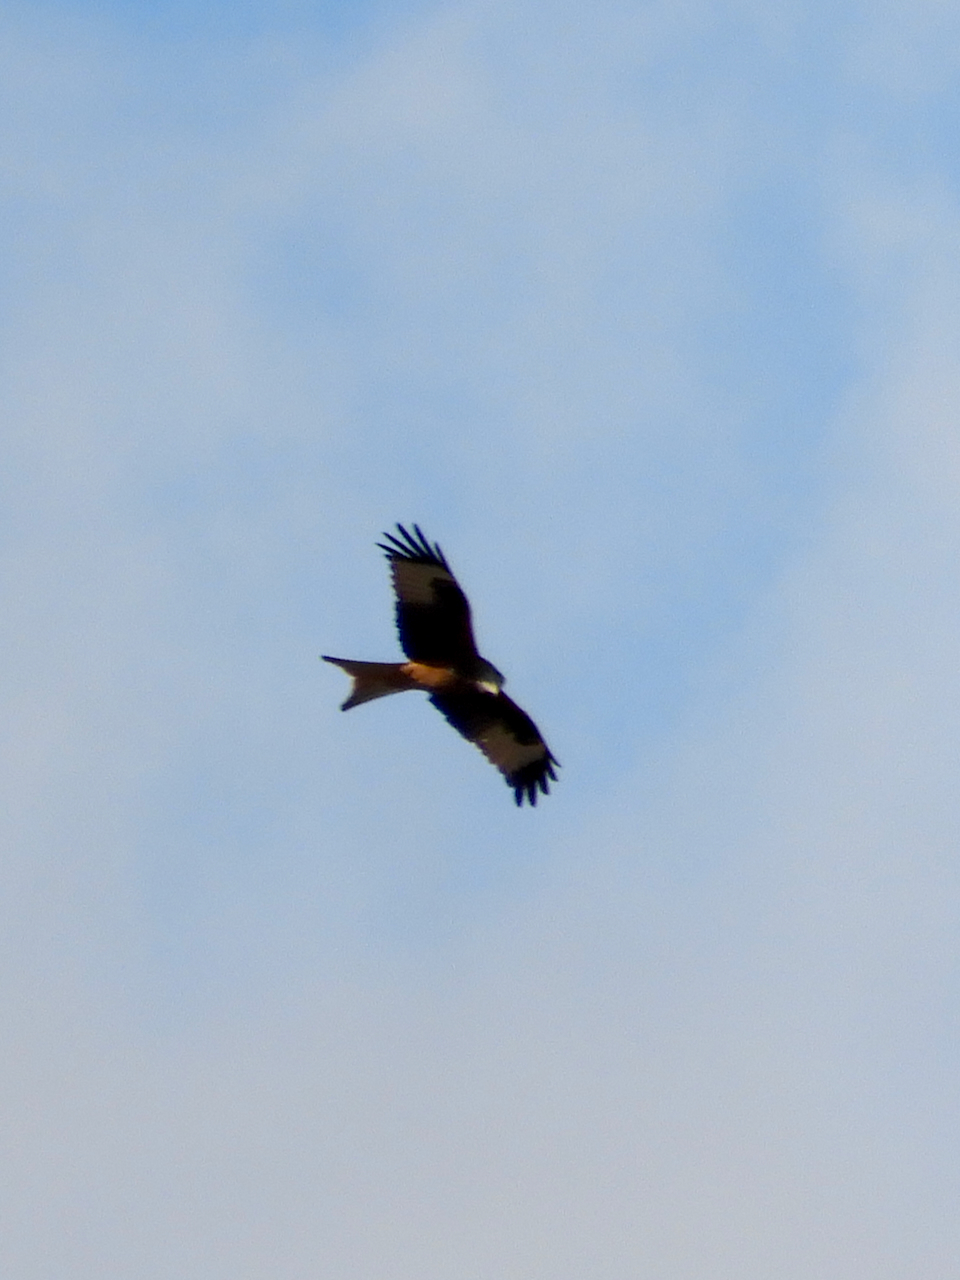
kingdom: Animalia
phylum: Chordata
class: Aves
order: Accipitriformes
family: Accipitridae
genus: Milvus
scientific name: Milvus milvus
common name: Red kite
